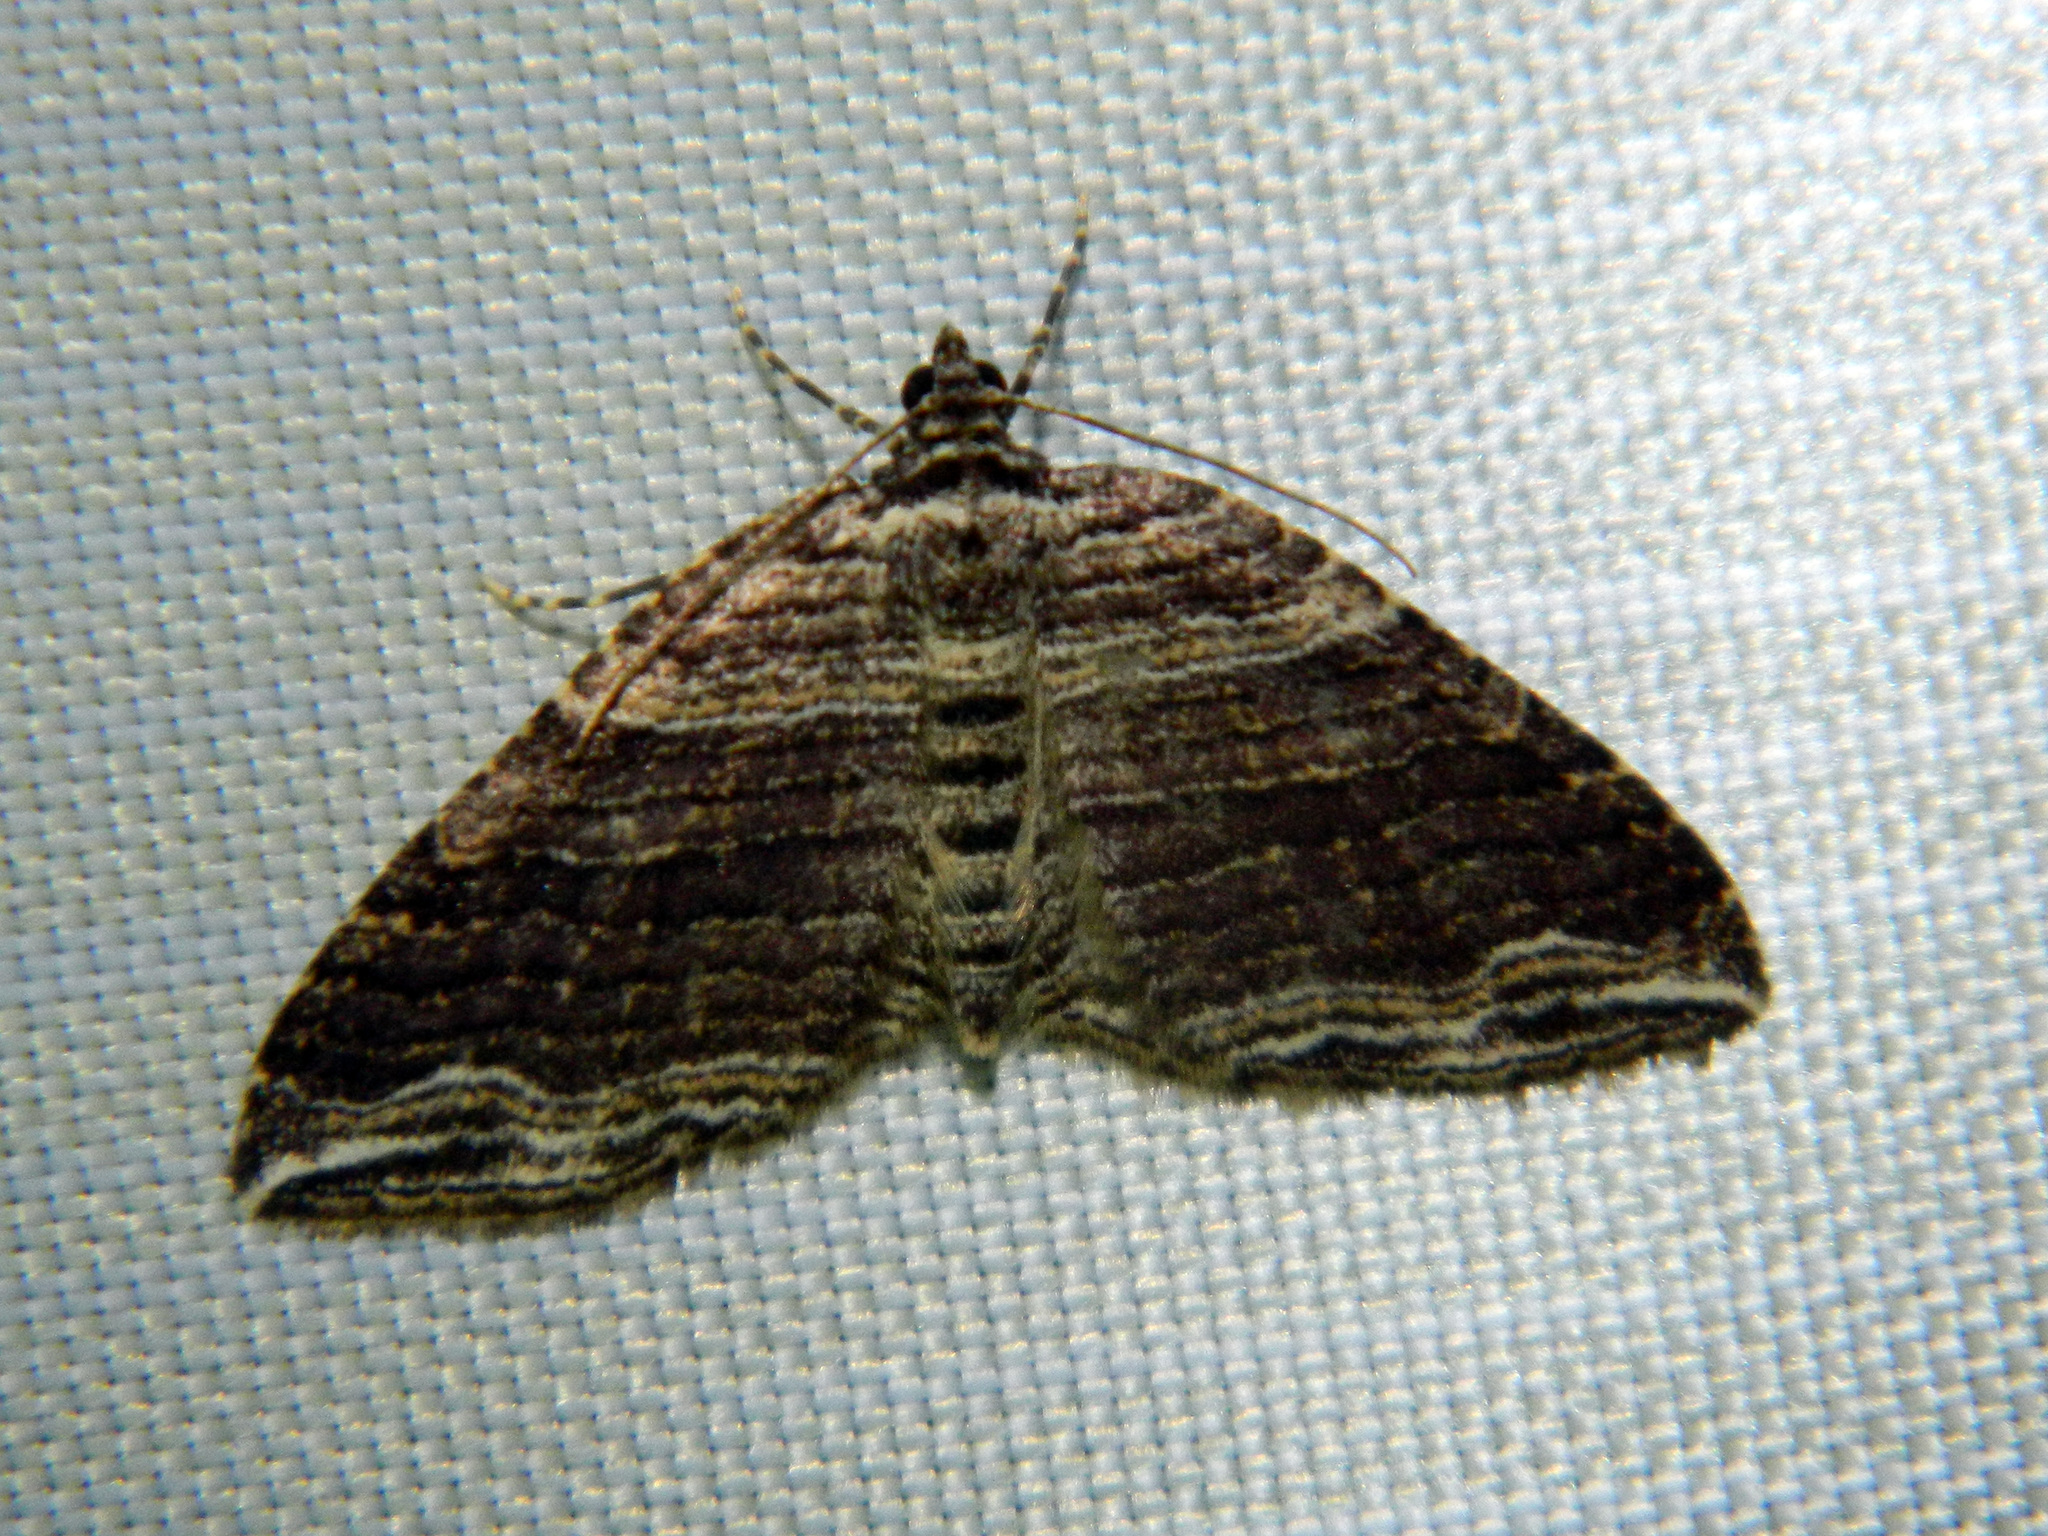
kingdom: Animalia
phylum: Arthropoda
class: Insecta
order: Lepidoptera
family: Geometridae
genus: Anticlea
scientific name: Anticlea multiferata
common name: Many-lined carpet
